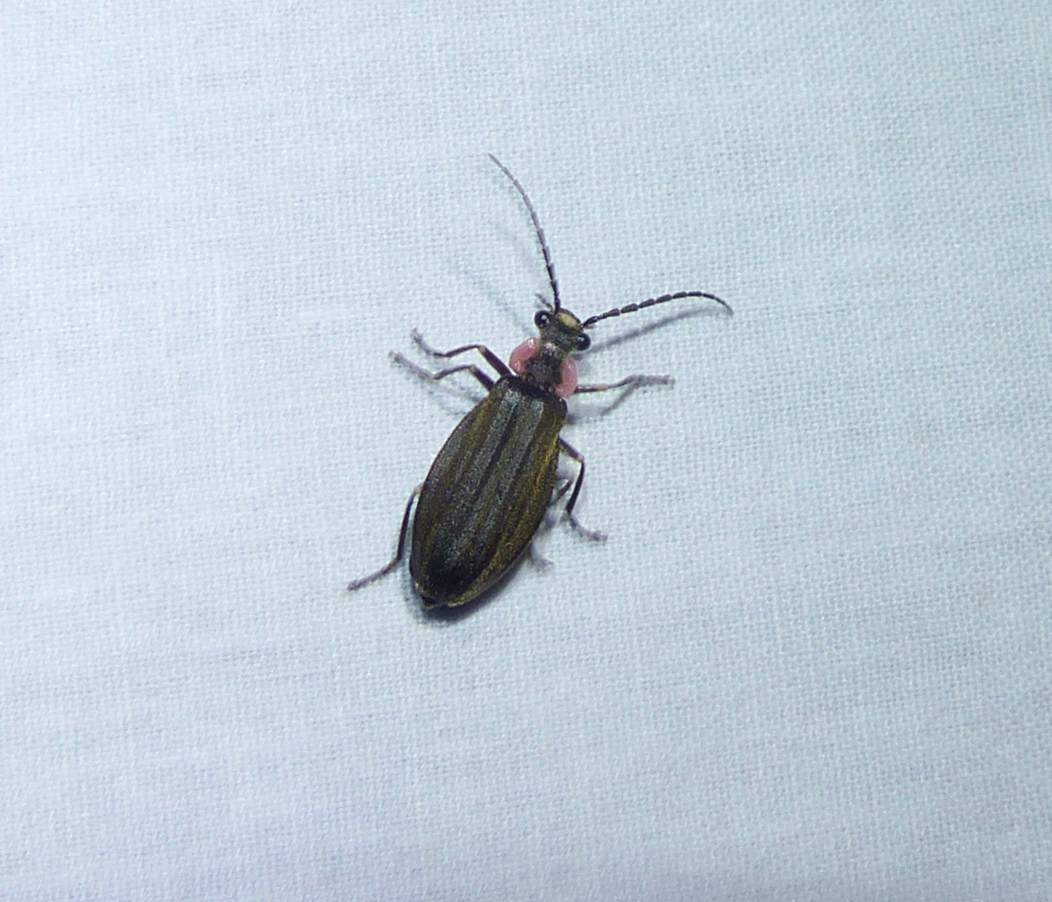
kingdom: Animalia
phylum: Arthropoda
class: Insecta
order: Coleoptera
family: Cantharidae
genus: Podabrus
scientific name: Podabrus tricostatus
